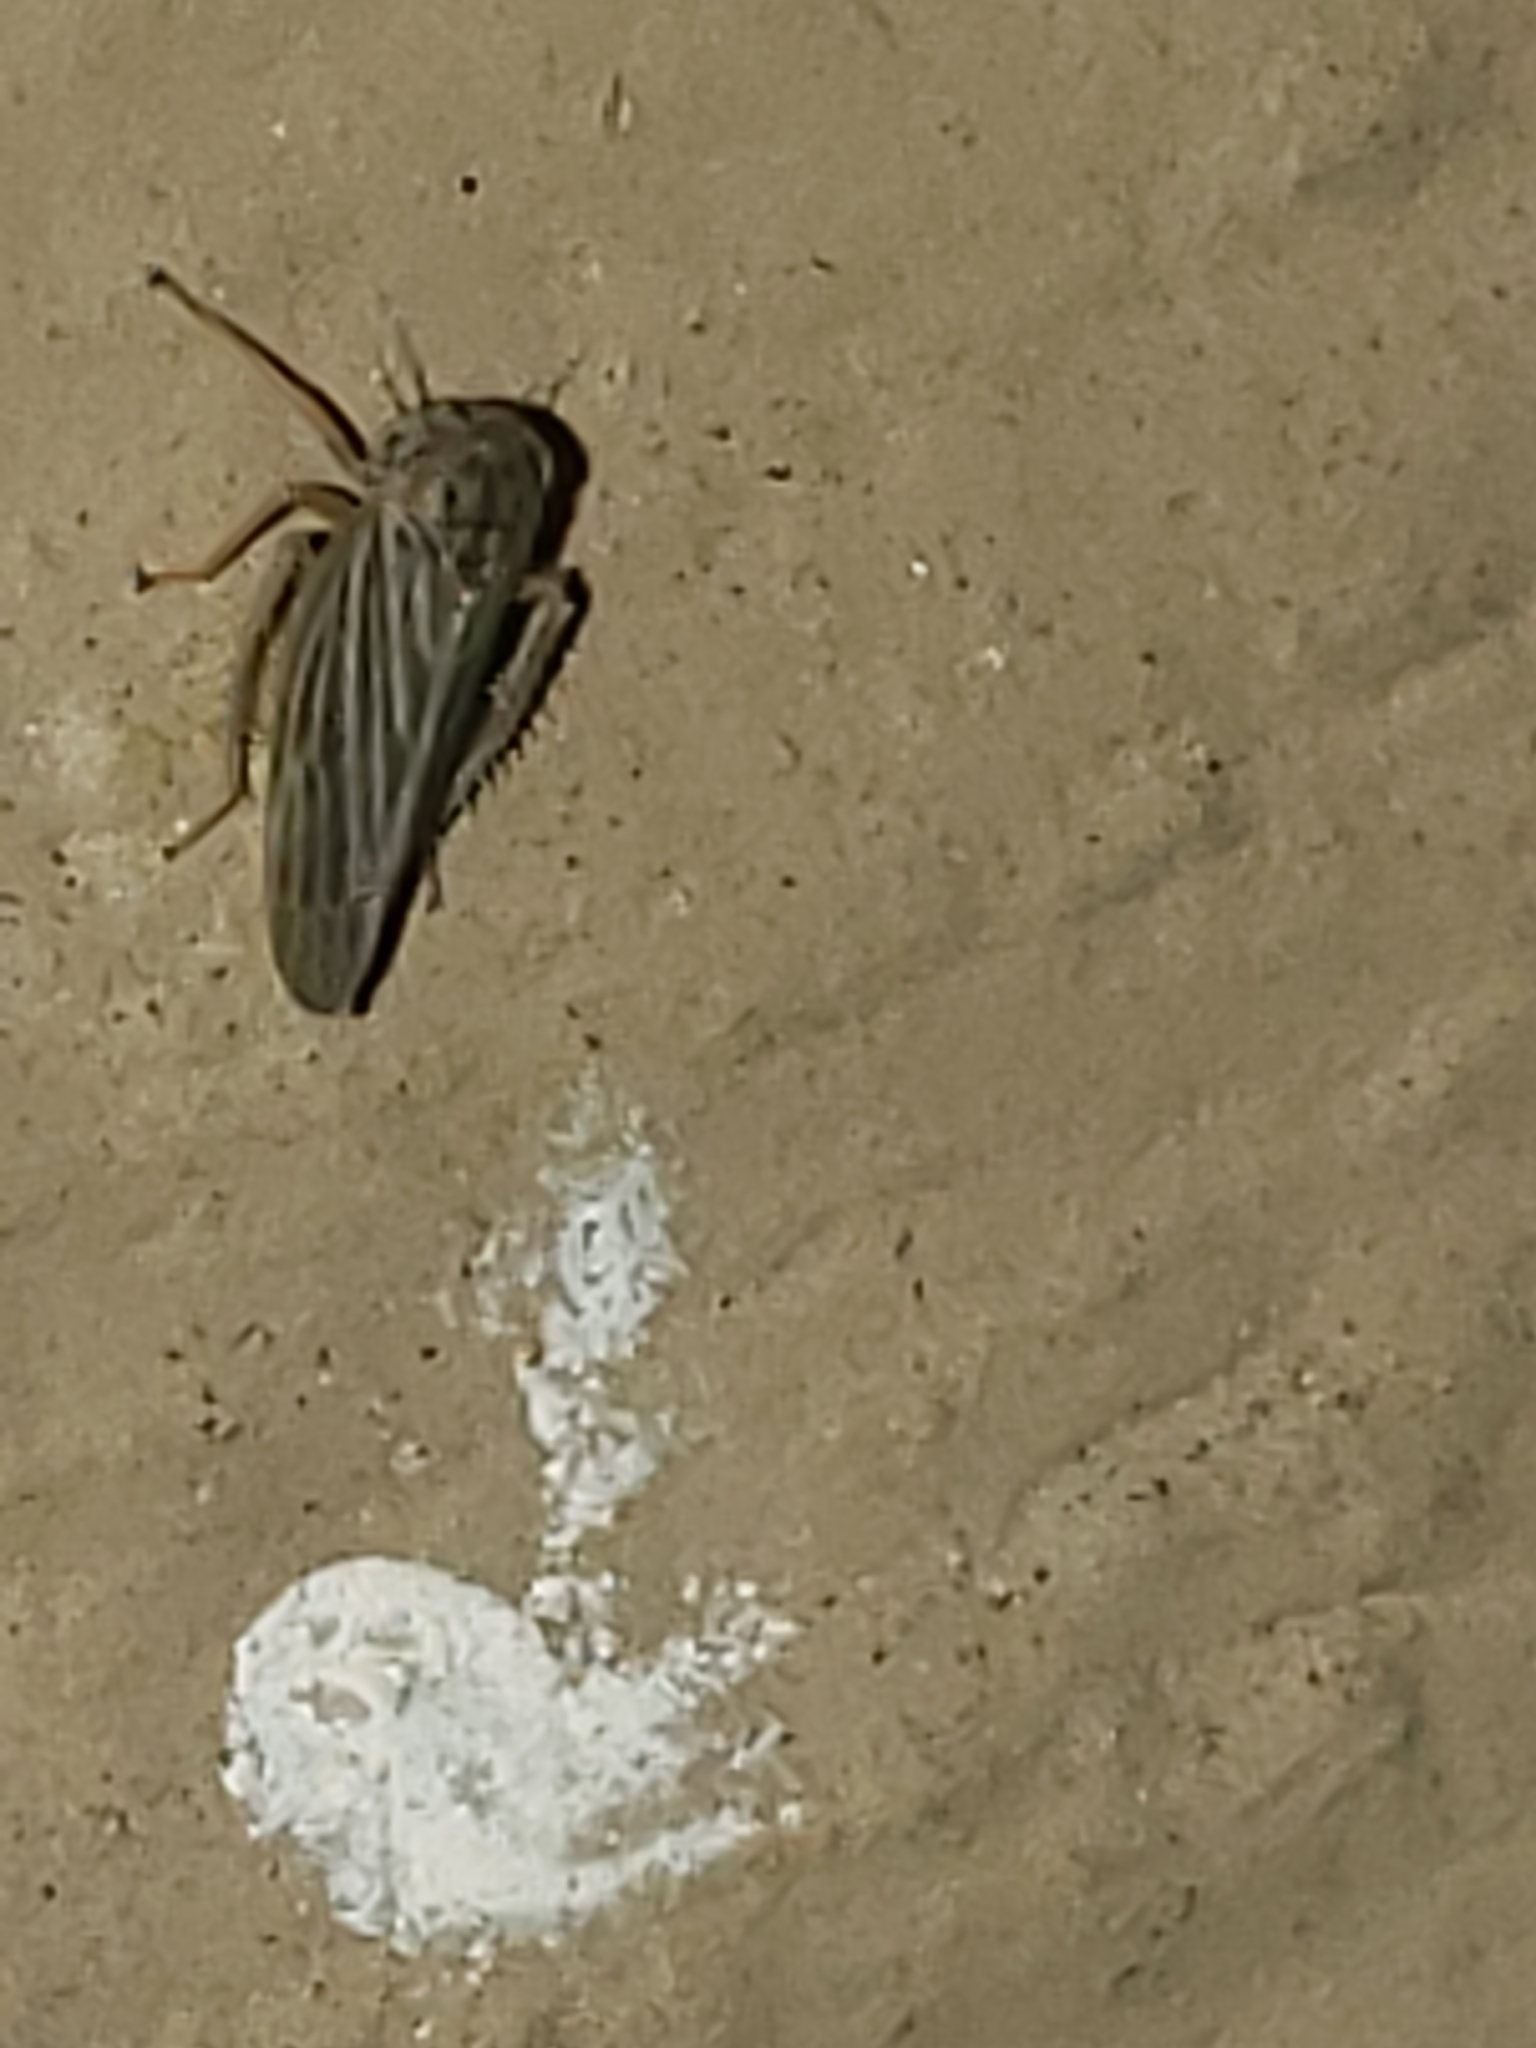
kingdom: Animalia
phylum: Arthropoda
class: Insecta
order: Hemiptera
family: Cicadellidae
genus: Agallia
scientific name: Agallia constricta
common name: The constricted leafhopper
